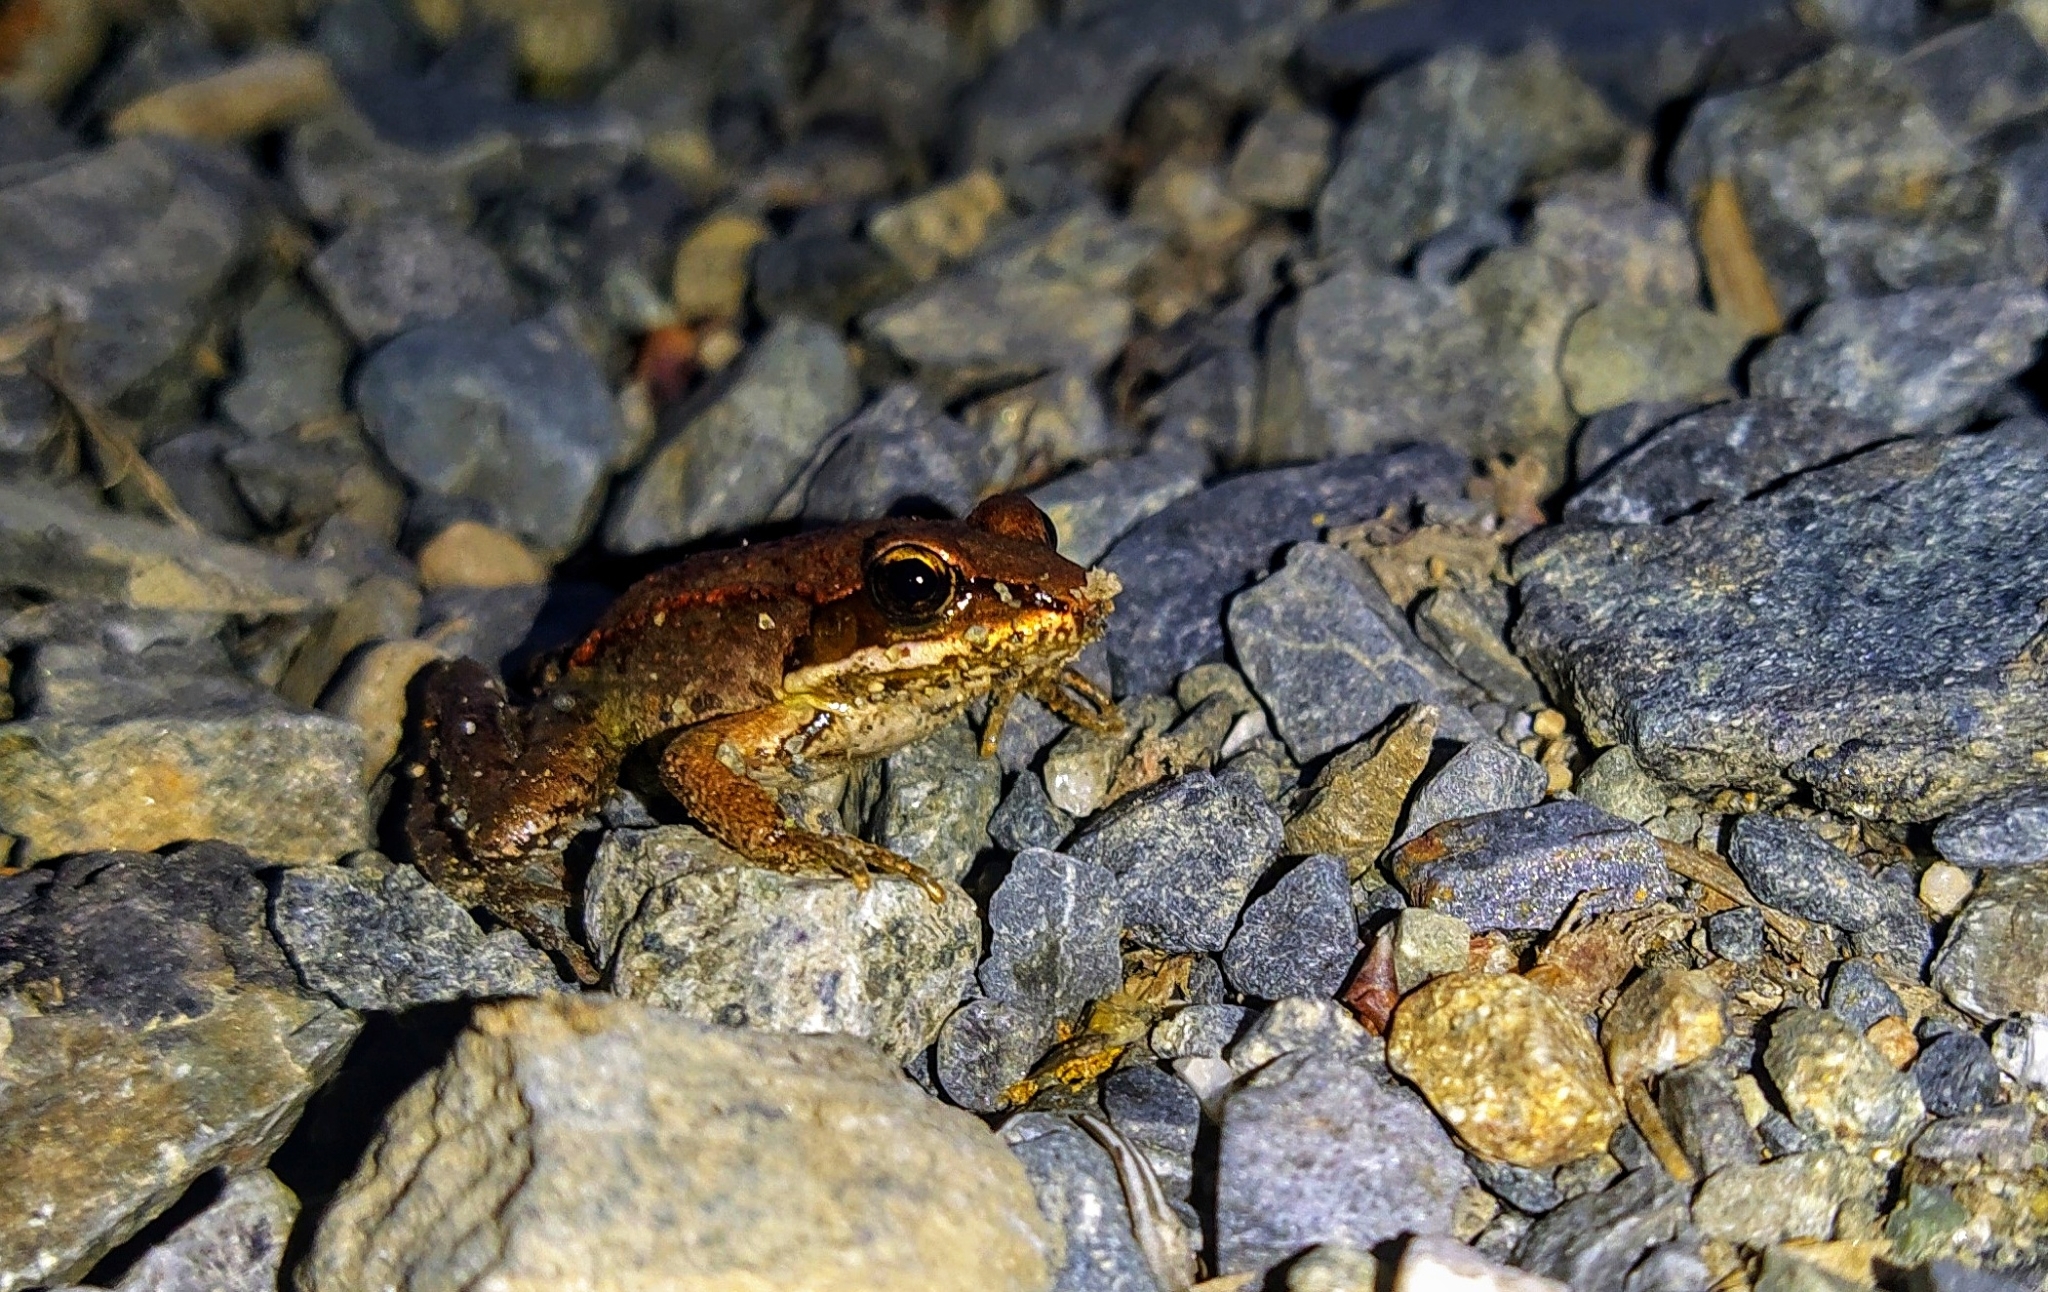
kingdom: Animalia
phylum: Chordata
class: Amphibia
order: Anura
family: Ranidae
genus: Lithobates
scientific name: Lithobates sylvaticus
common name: Wood frog
